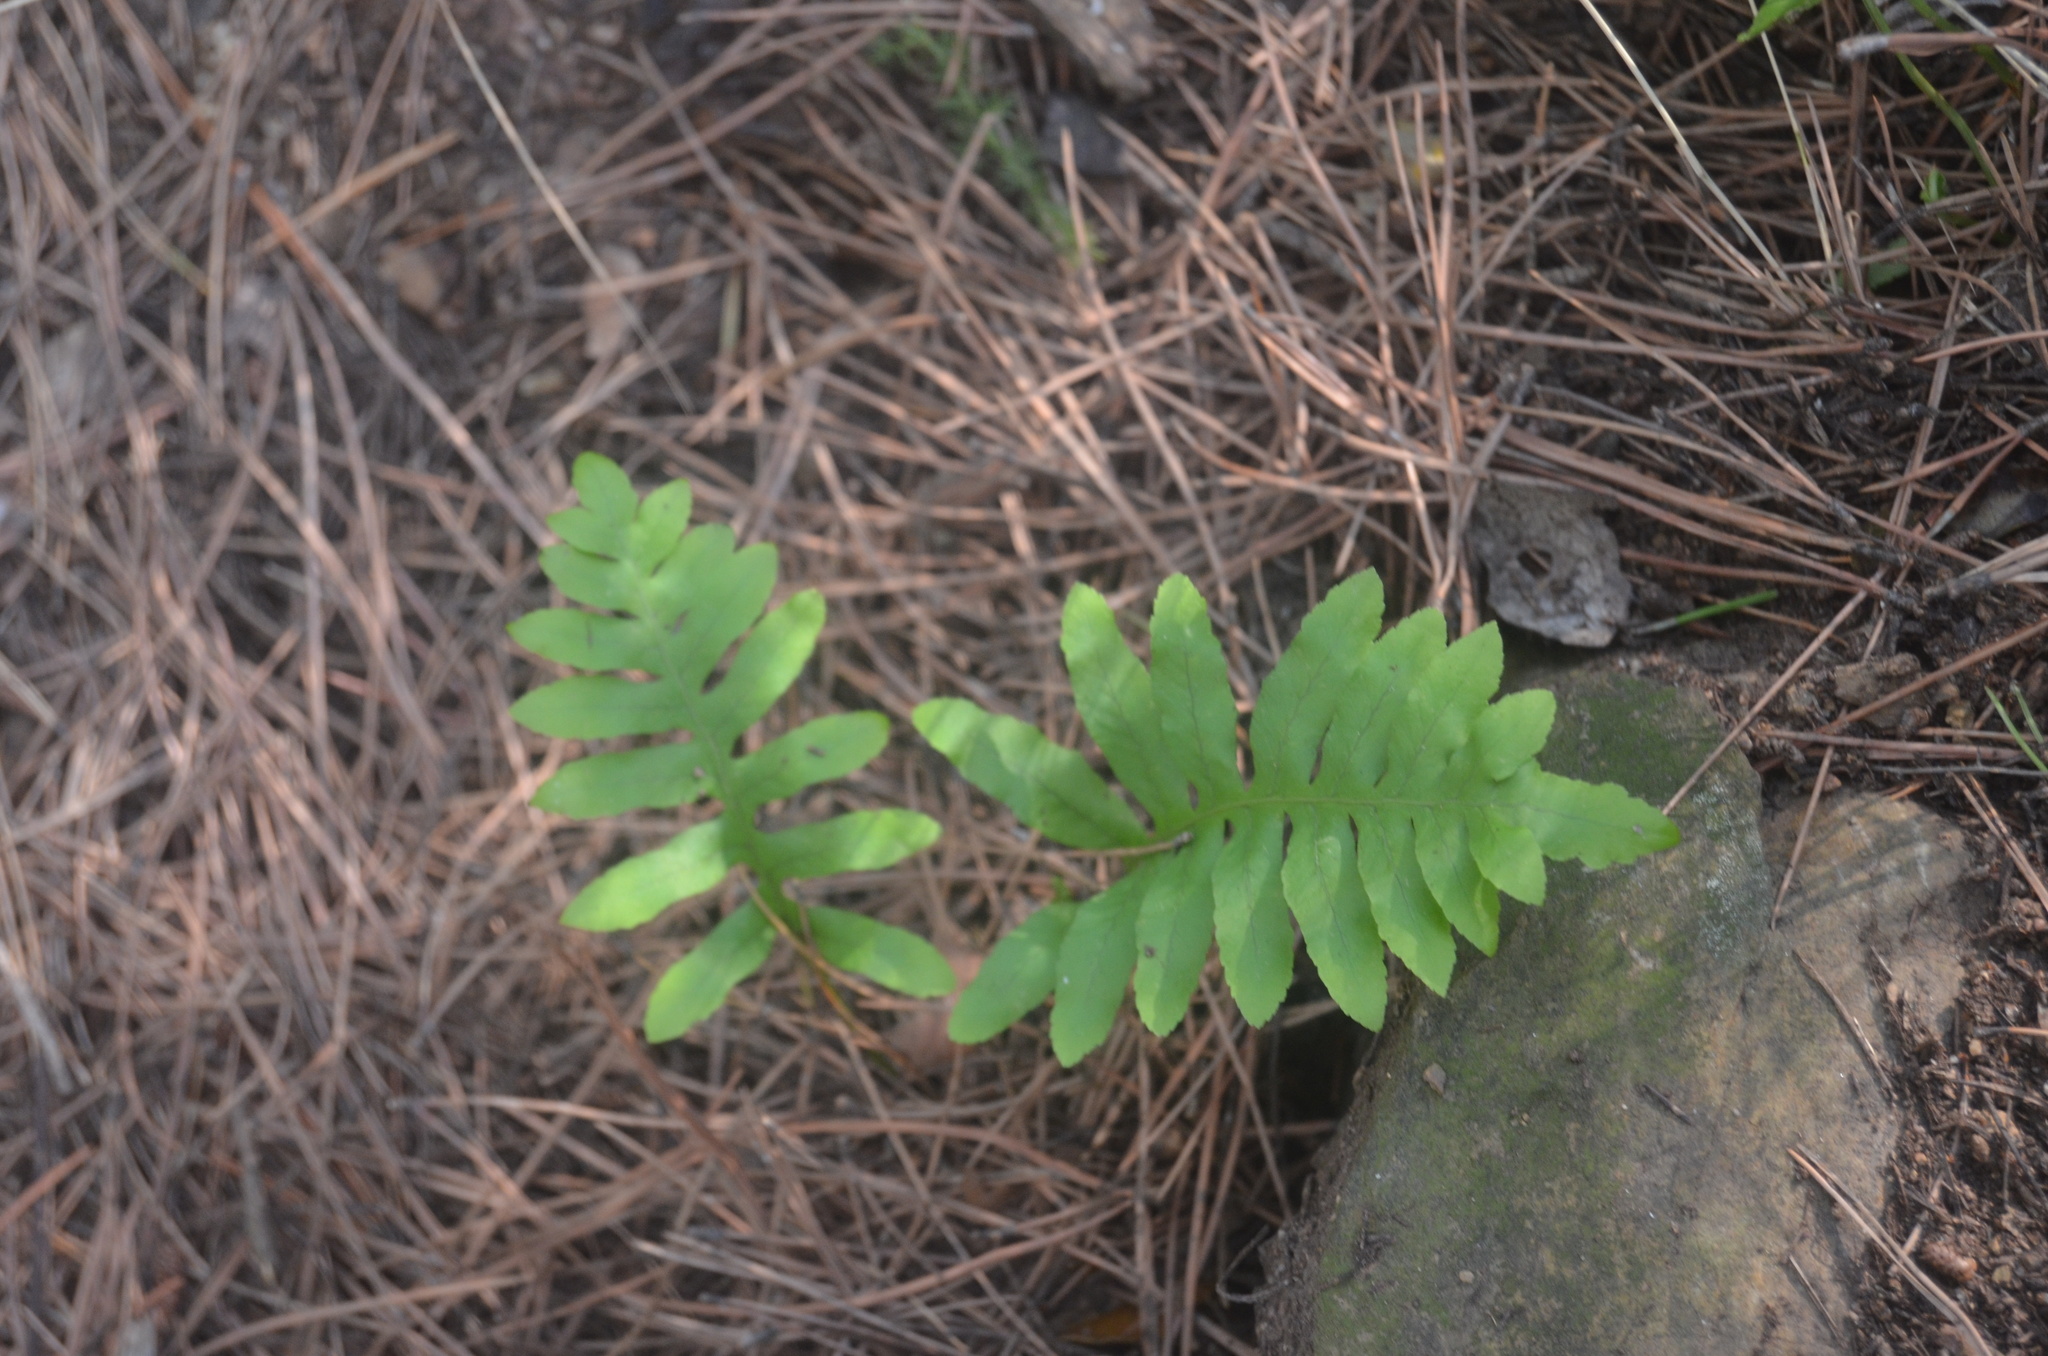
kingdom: Plantae
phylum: Tracheophyta
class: Polypodiopsida
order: Polypodiales
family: Polypodiaceae
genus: Polypodium
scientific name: Polypodium vulgare
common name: Common polypody
